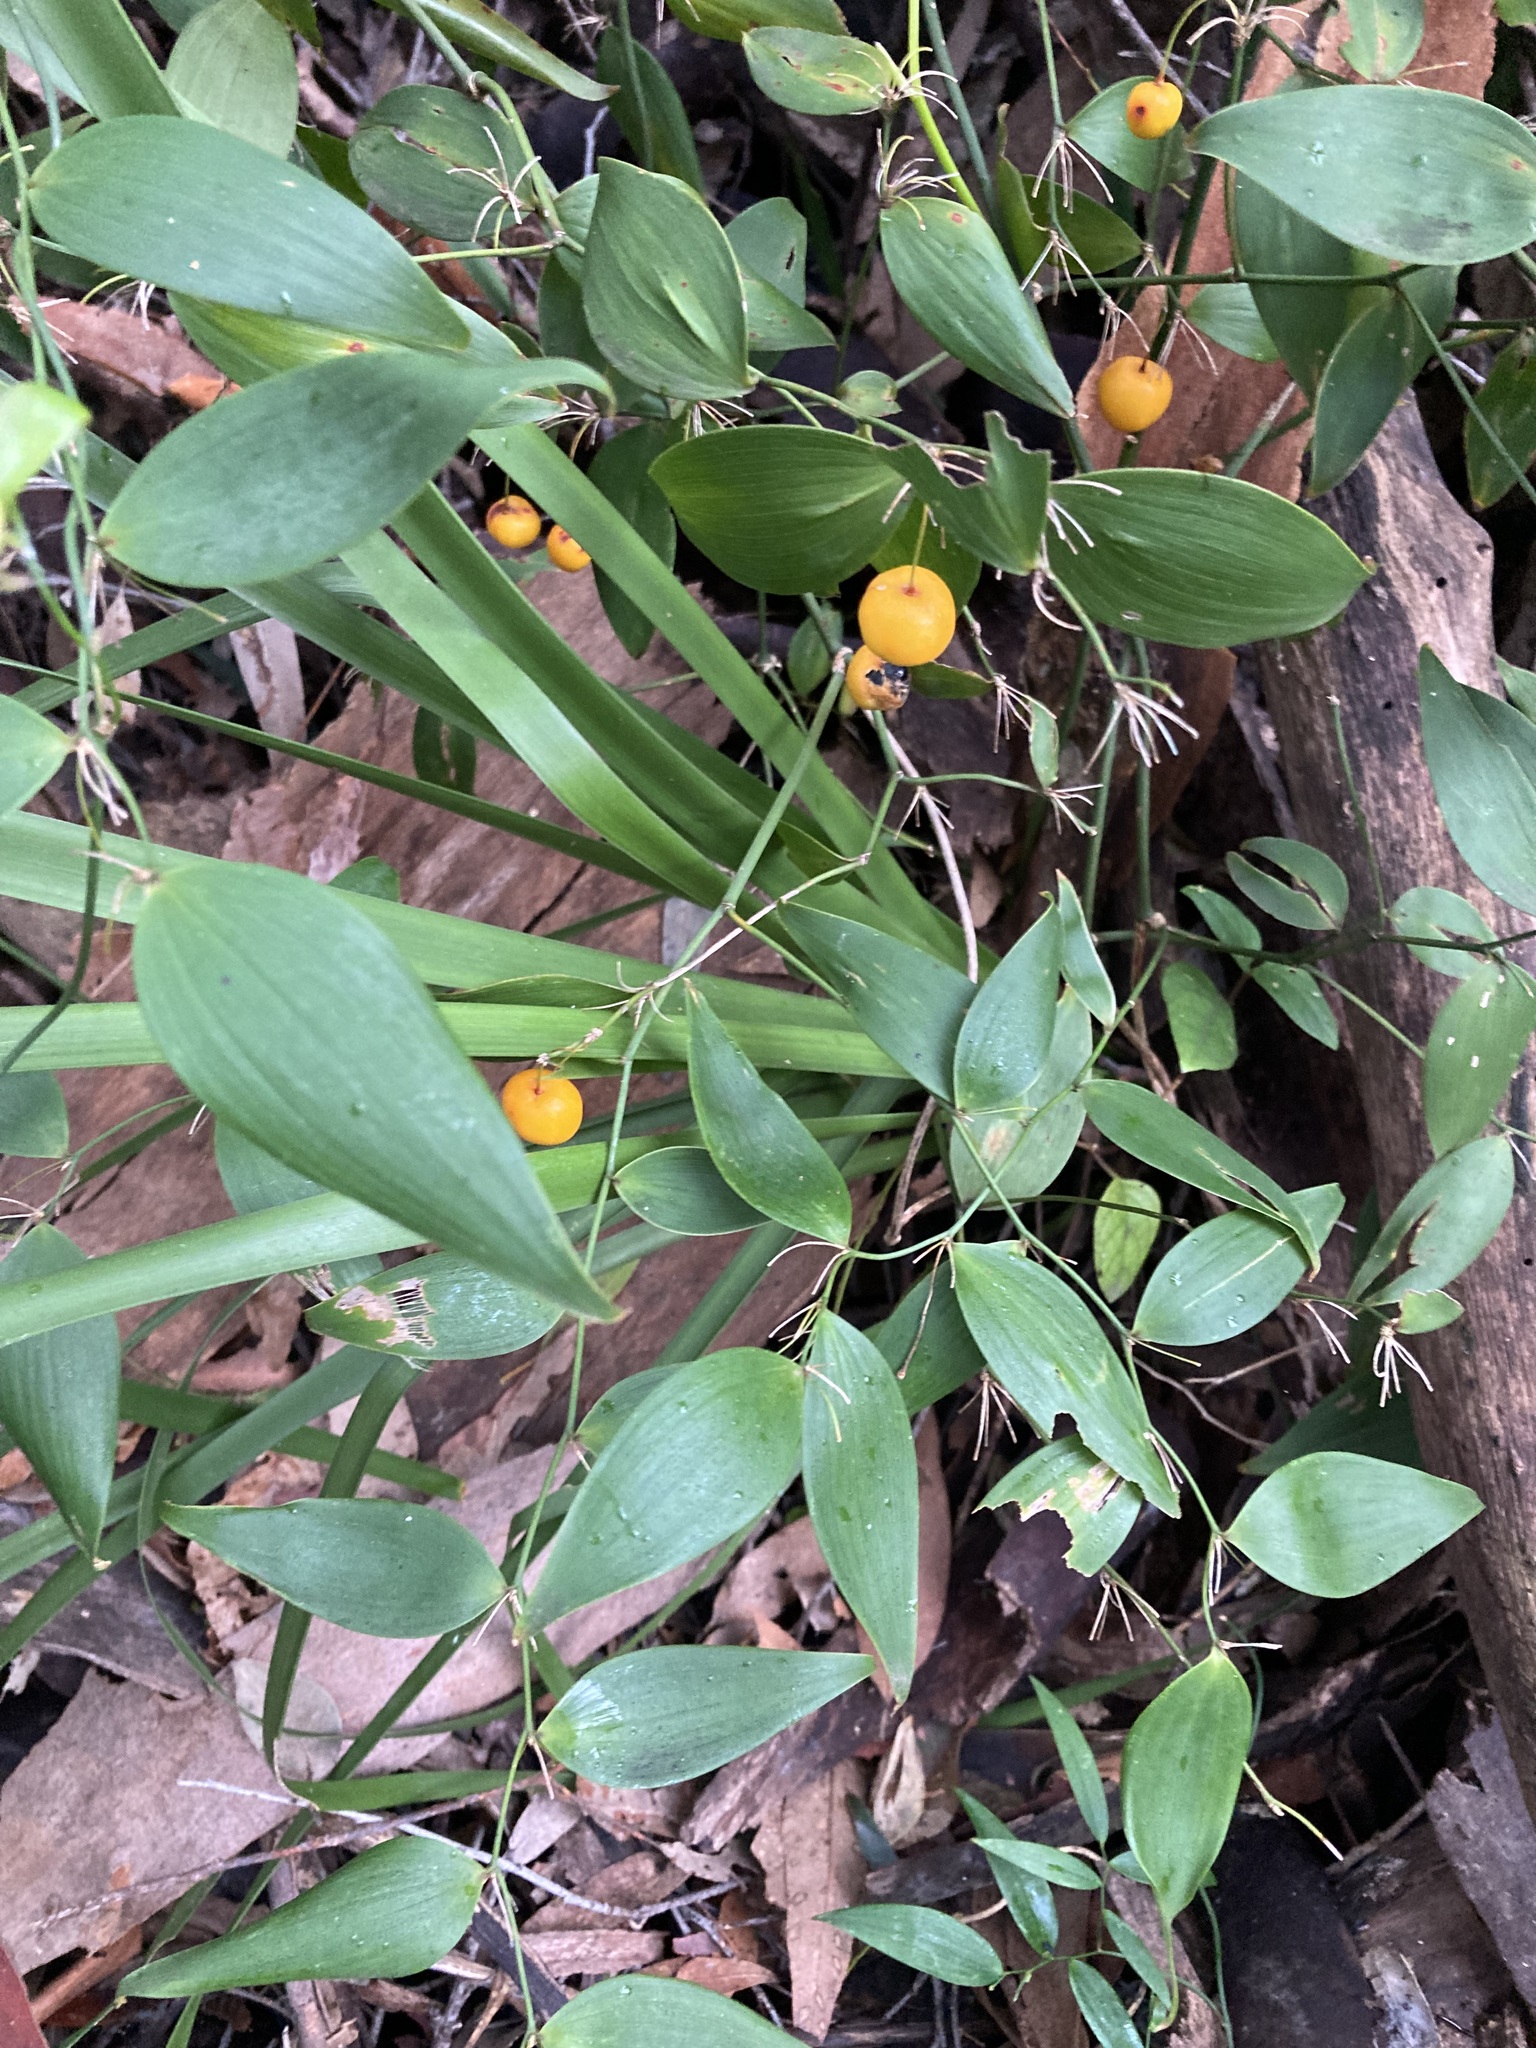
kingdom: Plantae
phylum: Tracheophyta
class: Liliopsida
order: Asparagales
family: Asparagaceae
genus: Eustrephus
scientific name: Eustrephus latifolius
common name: Orangevine
